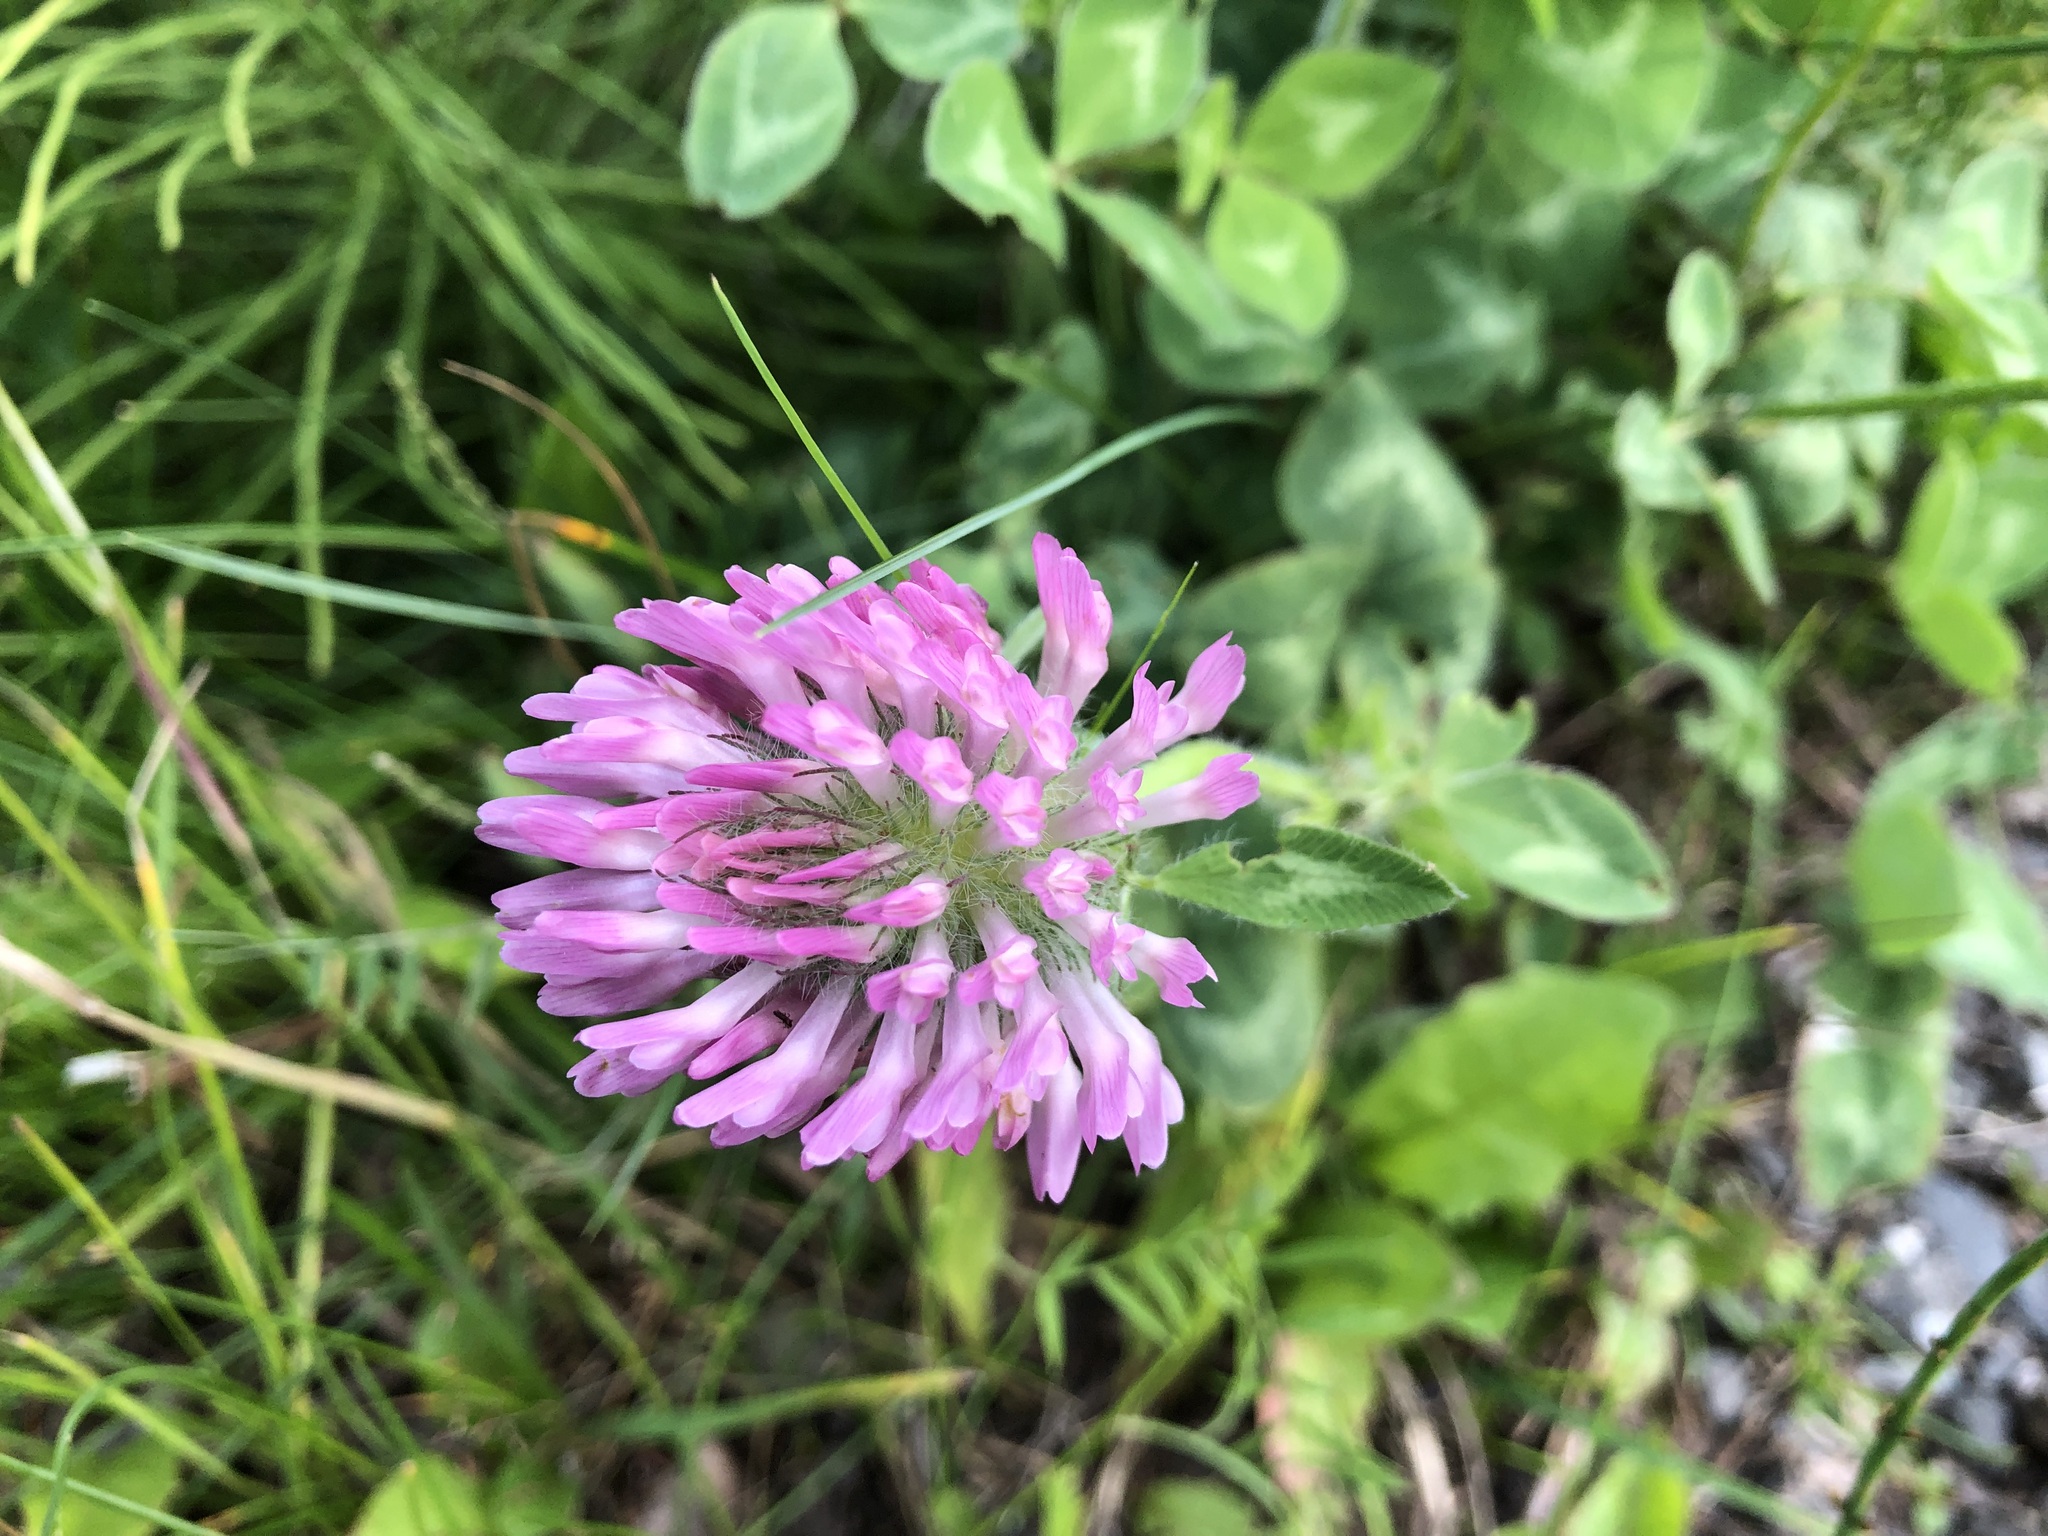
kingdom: Plantae
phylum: Tracheophyta
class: Magnoliopsida
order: Fabales
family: Fabaceae
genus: Trifolium
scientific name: Trifolium pratense
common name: Red clover
